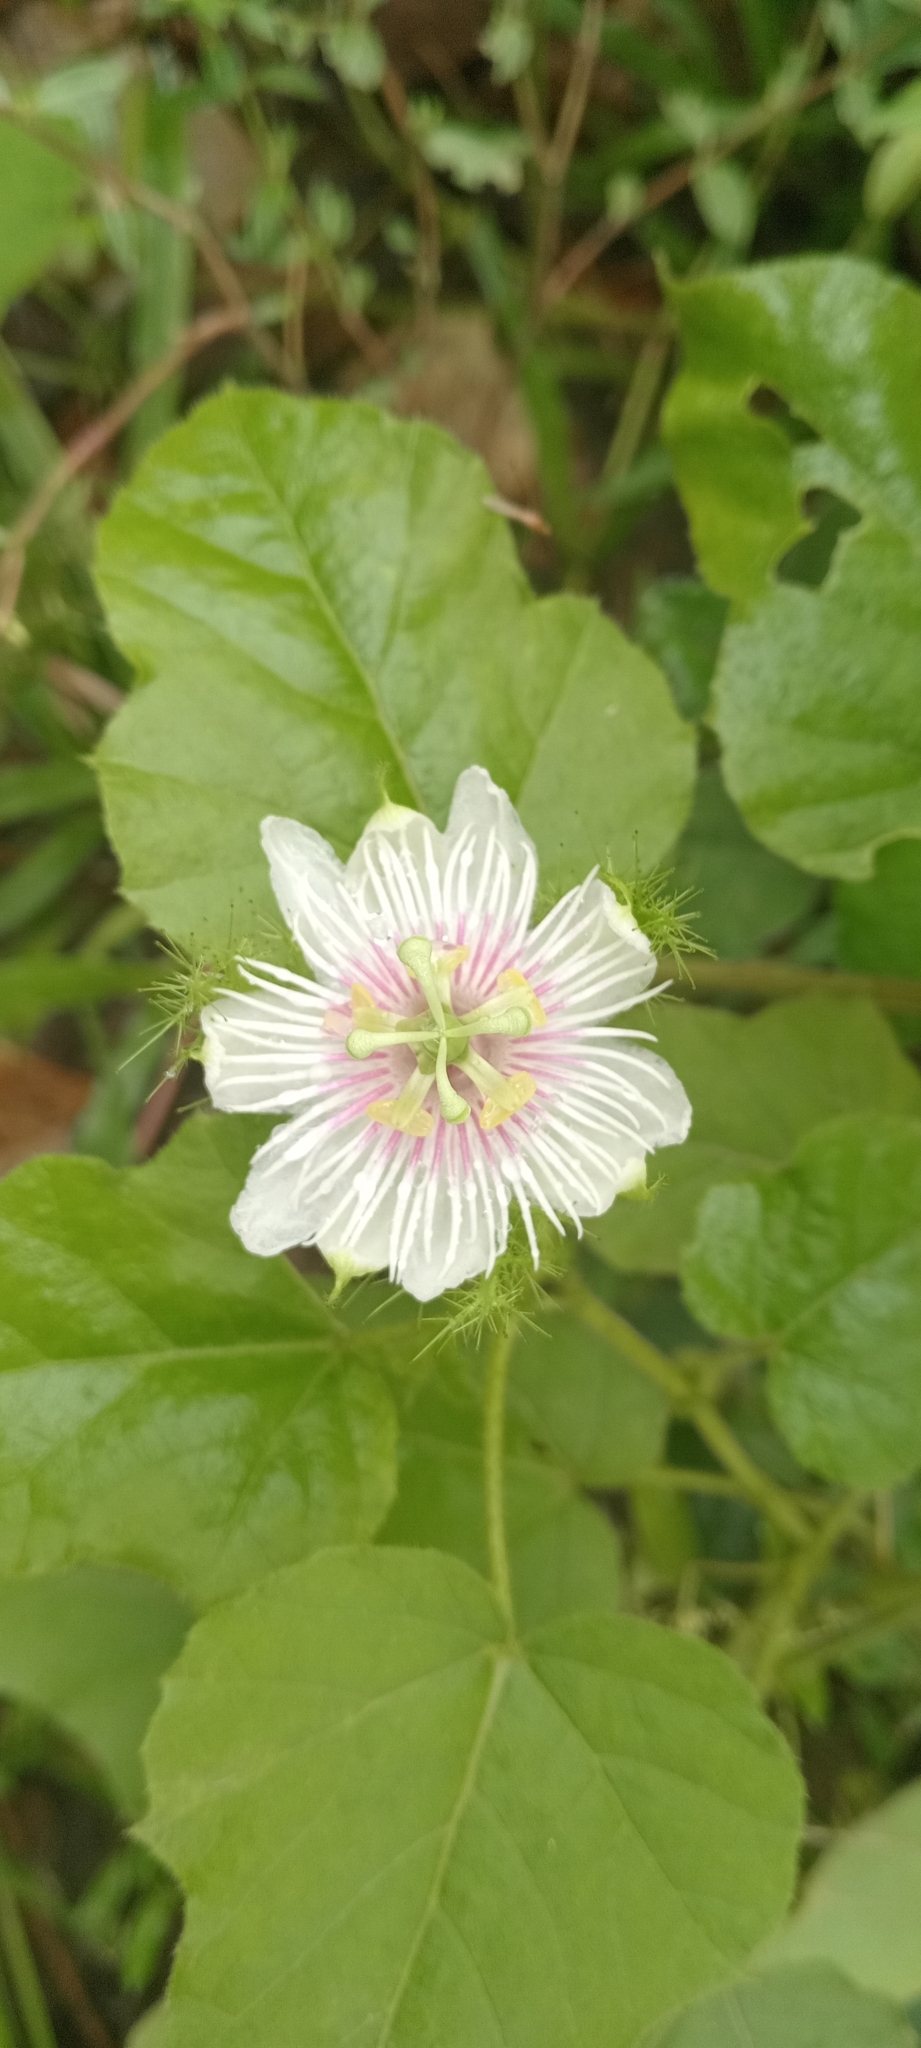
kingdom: Plantae
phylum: Tracheophyta
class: Magnoliopsida
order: Malpighiales
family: Passifloraceae
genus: Passiflora
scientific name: Passiflora vesicaria
